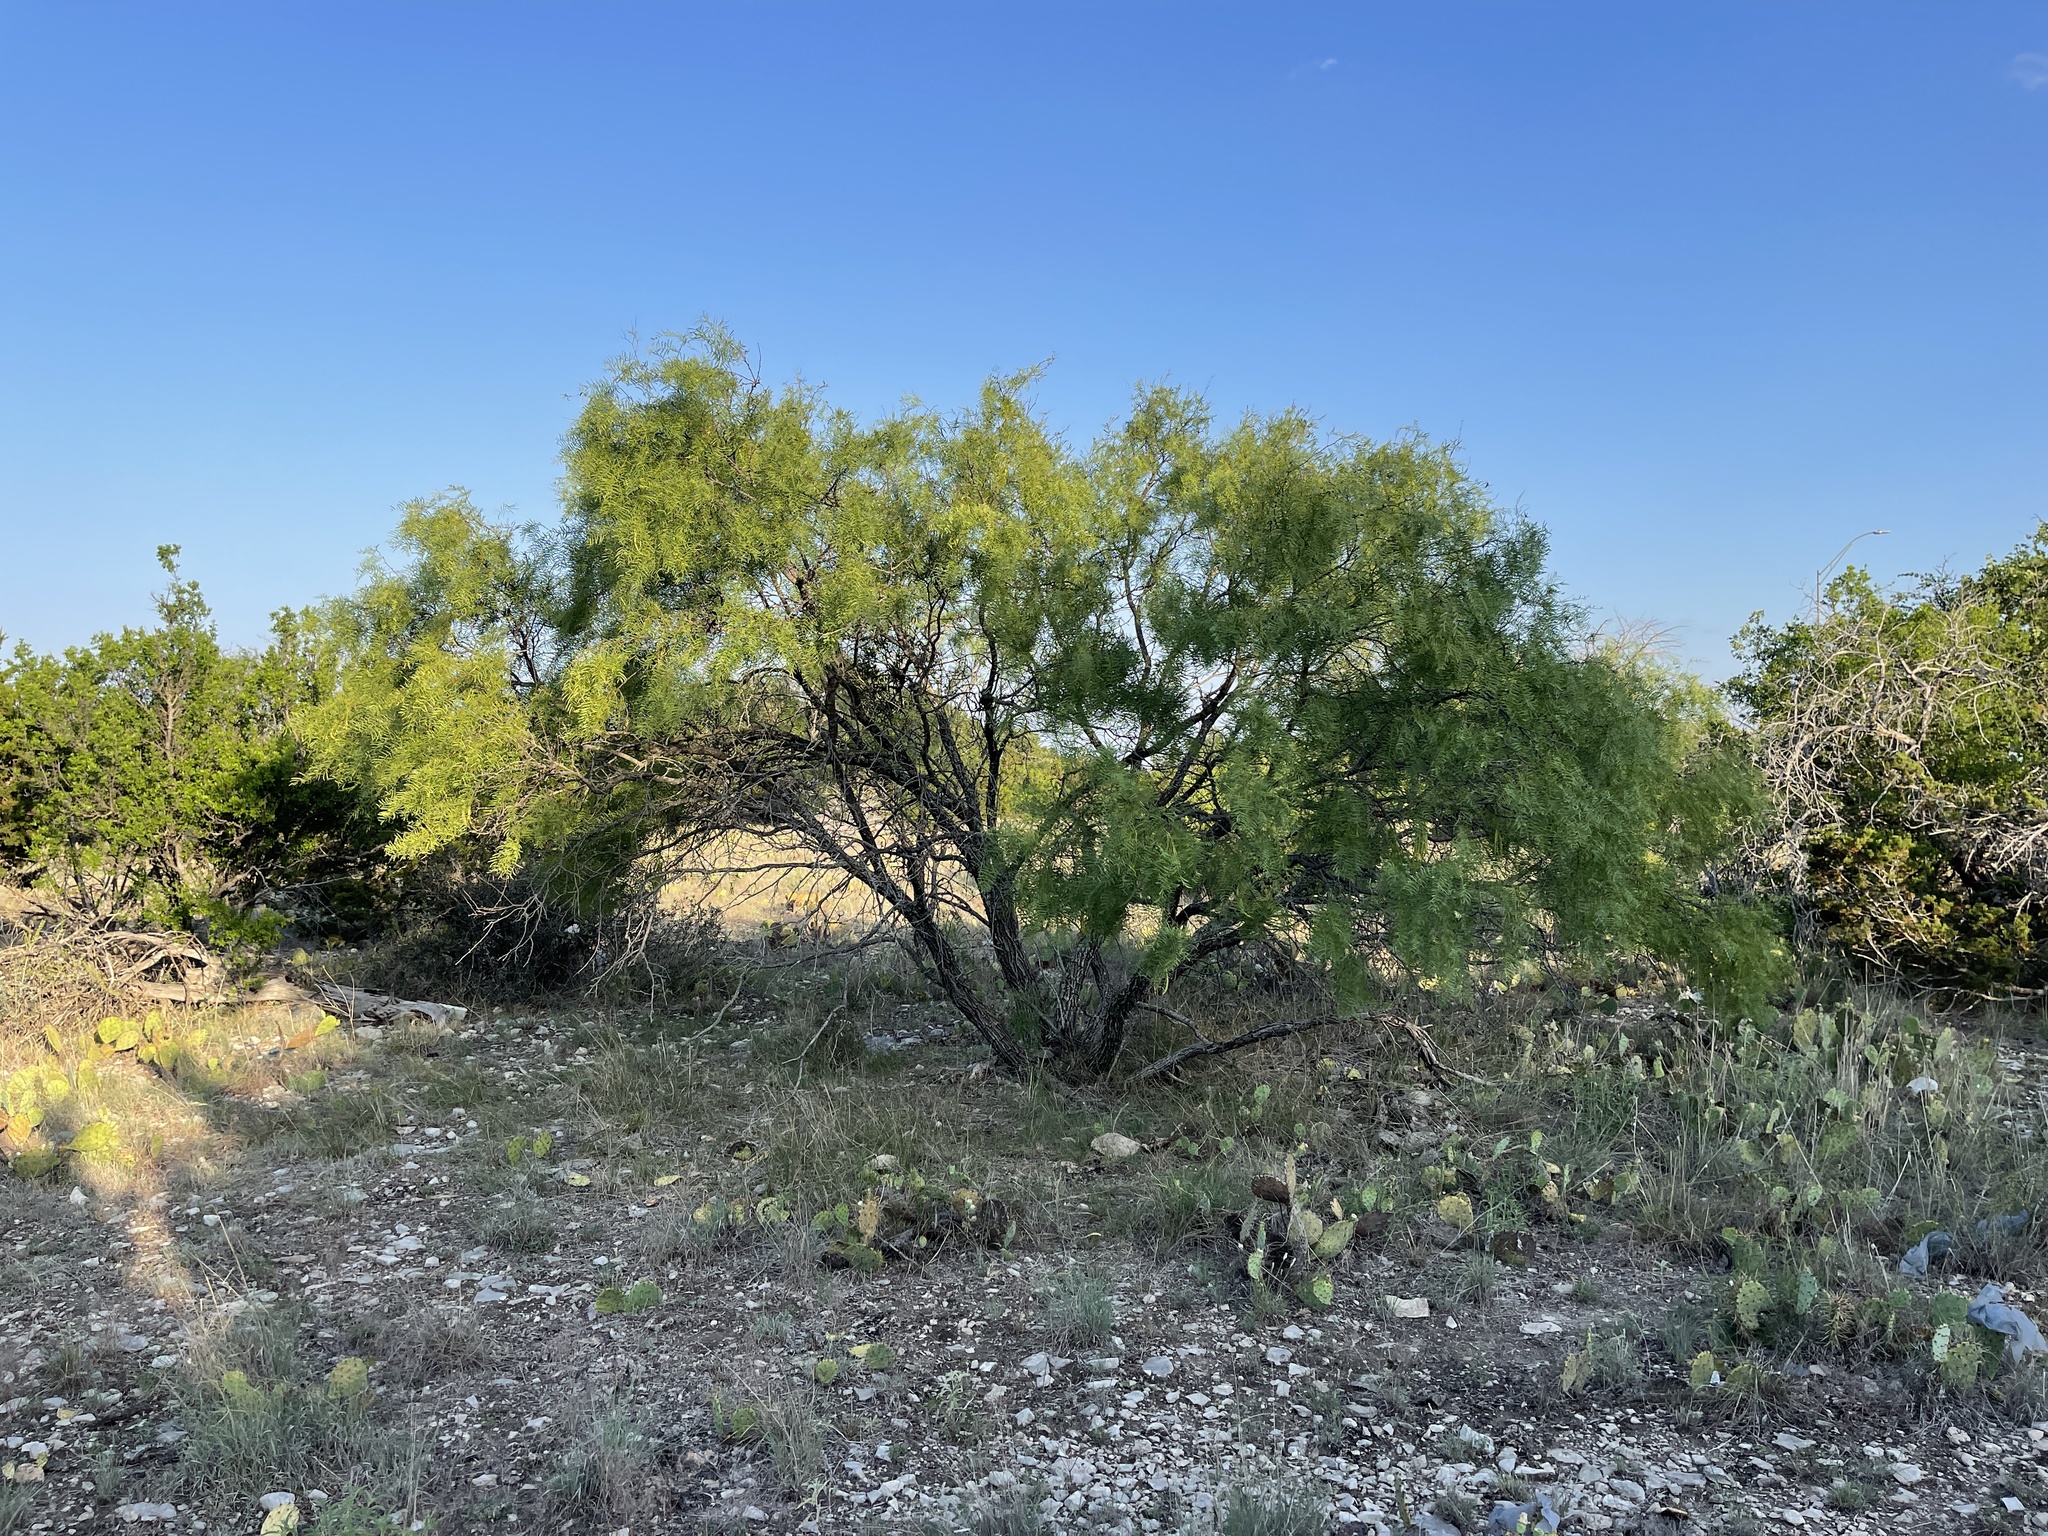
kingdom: Plantae
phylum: Tracheophyta
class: Magnoliopsida
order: Fabales
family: Fabaceae
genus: Prosopis
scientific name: Prosopis glandulosa
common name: Honey mesquite
